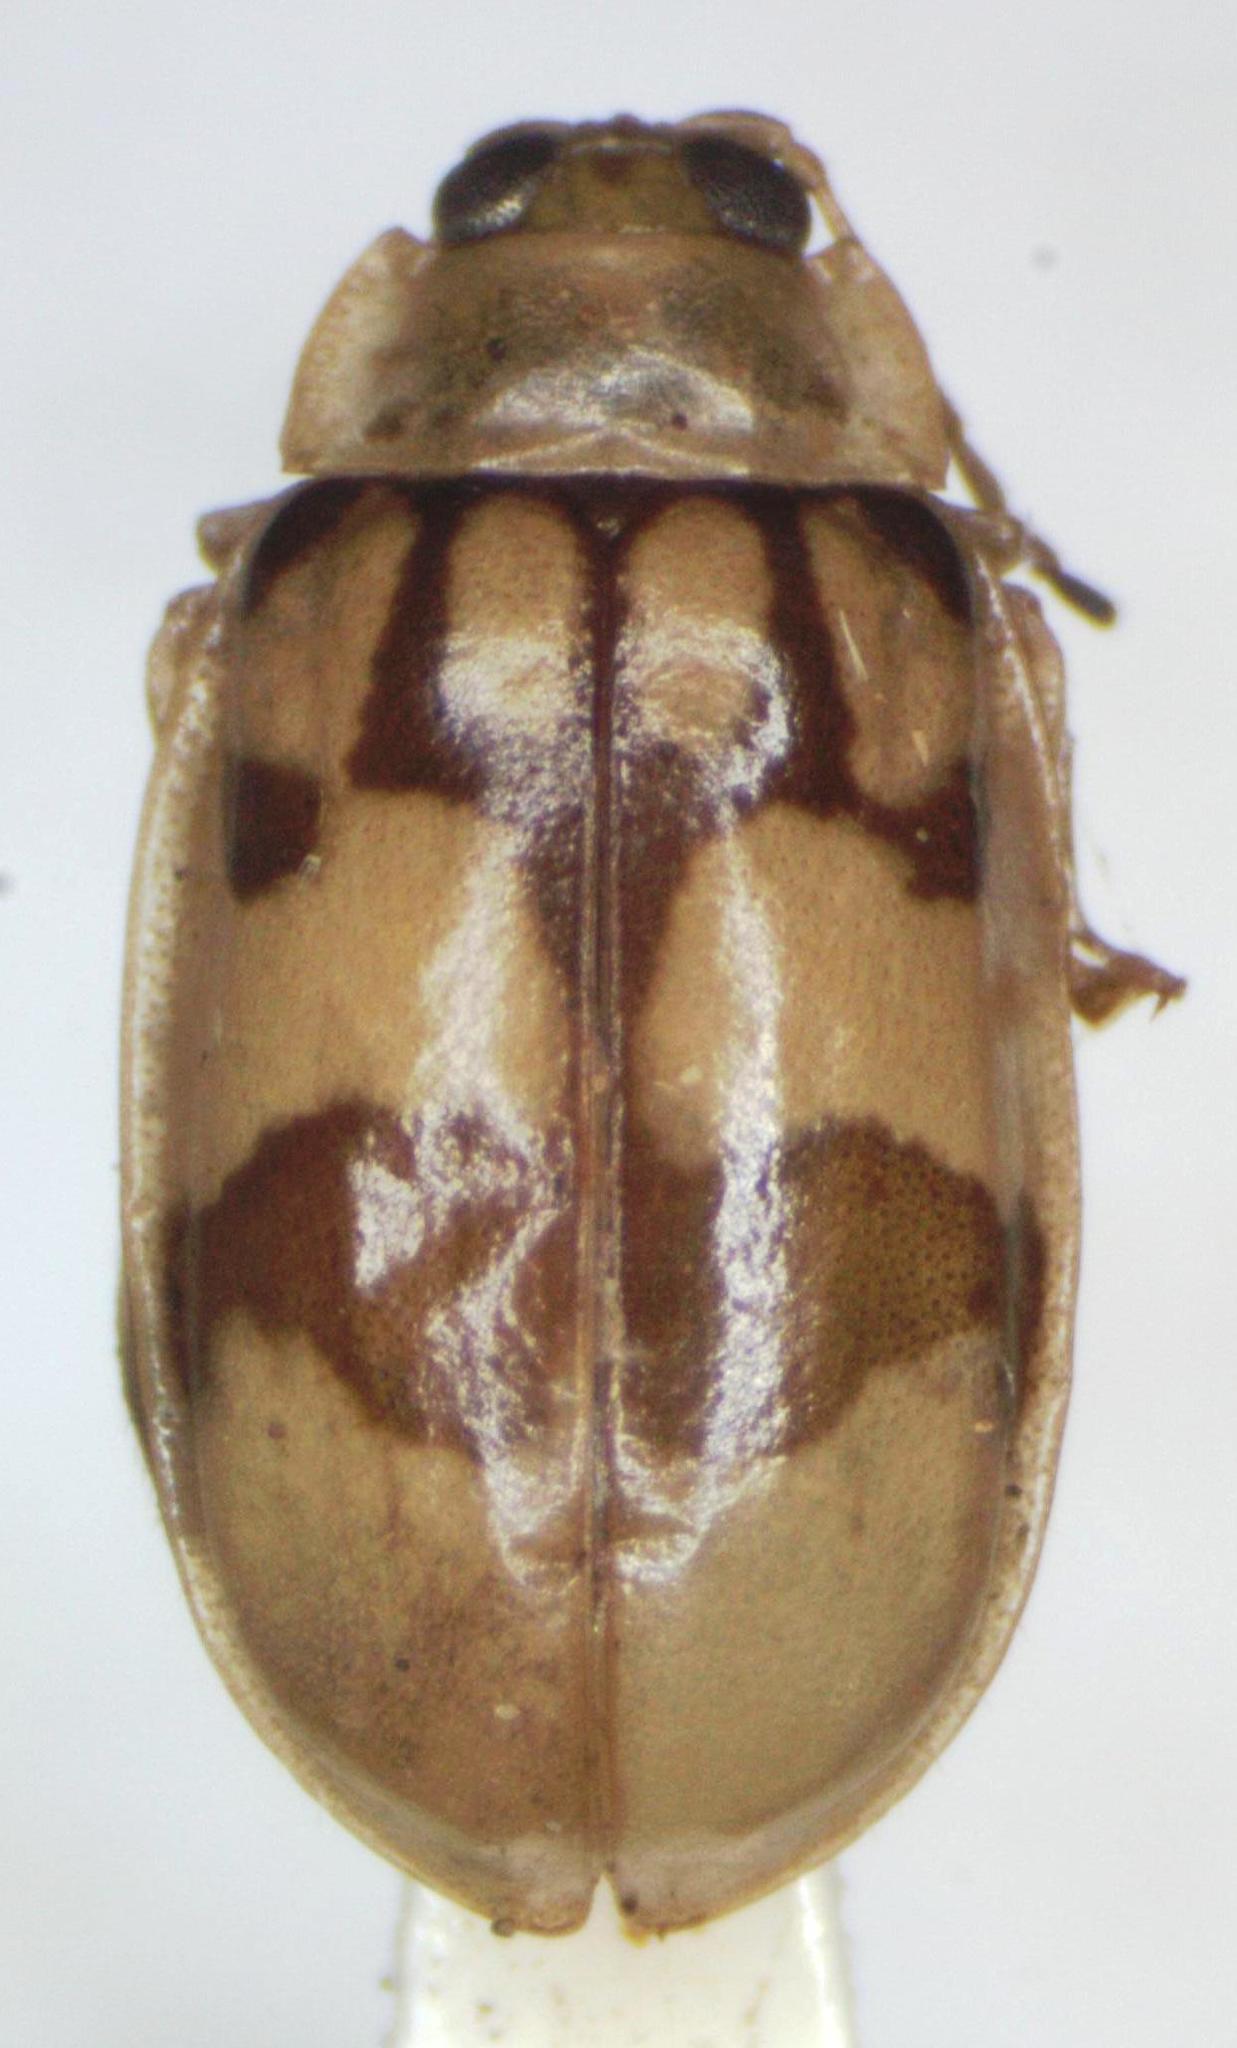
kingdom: Animalia
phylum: Arthropoda
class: Insecta
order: Coleoptera
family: Chrysomelidae
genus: Walterianella
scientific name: Walterianella
